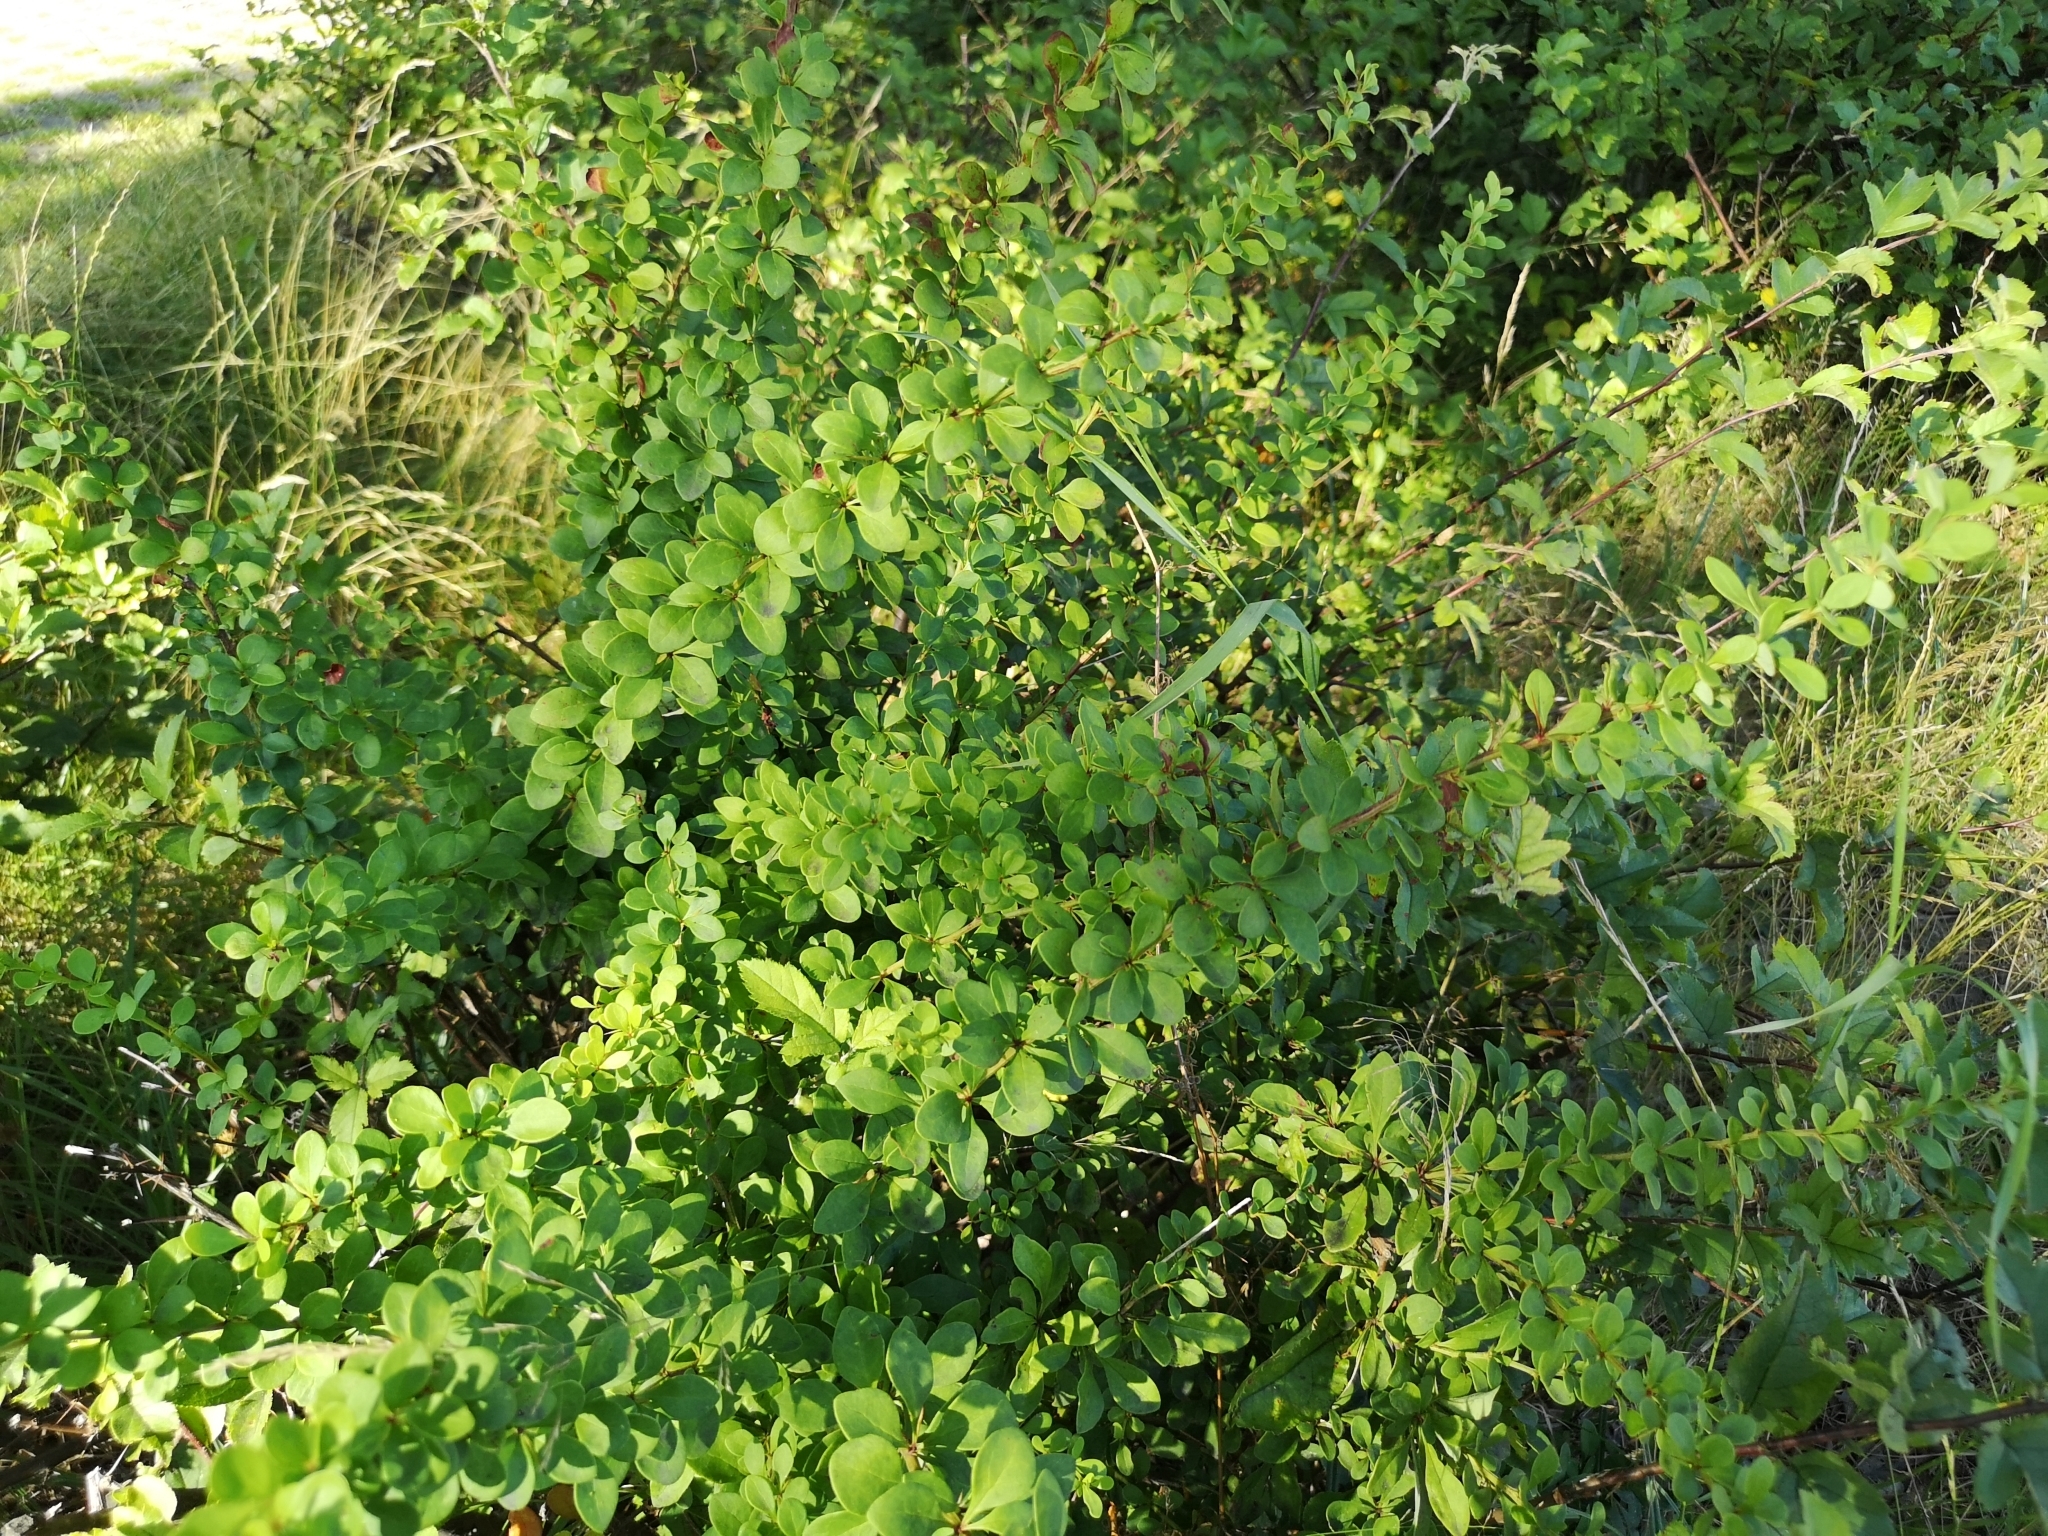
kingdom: Plantae
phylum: Tracheophyta
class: Magnoliopsida
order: Ranunculales
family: Berberidaceae
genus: Berberis
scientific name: Berberis thunbergii
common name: Japanese barberry
